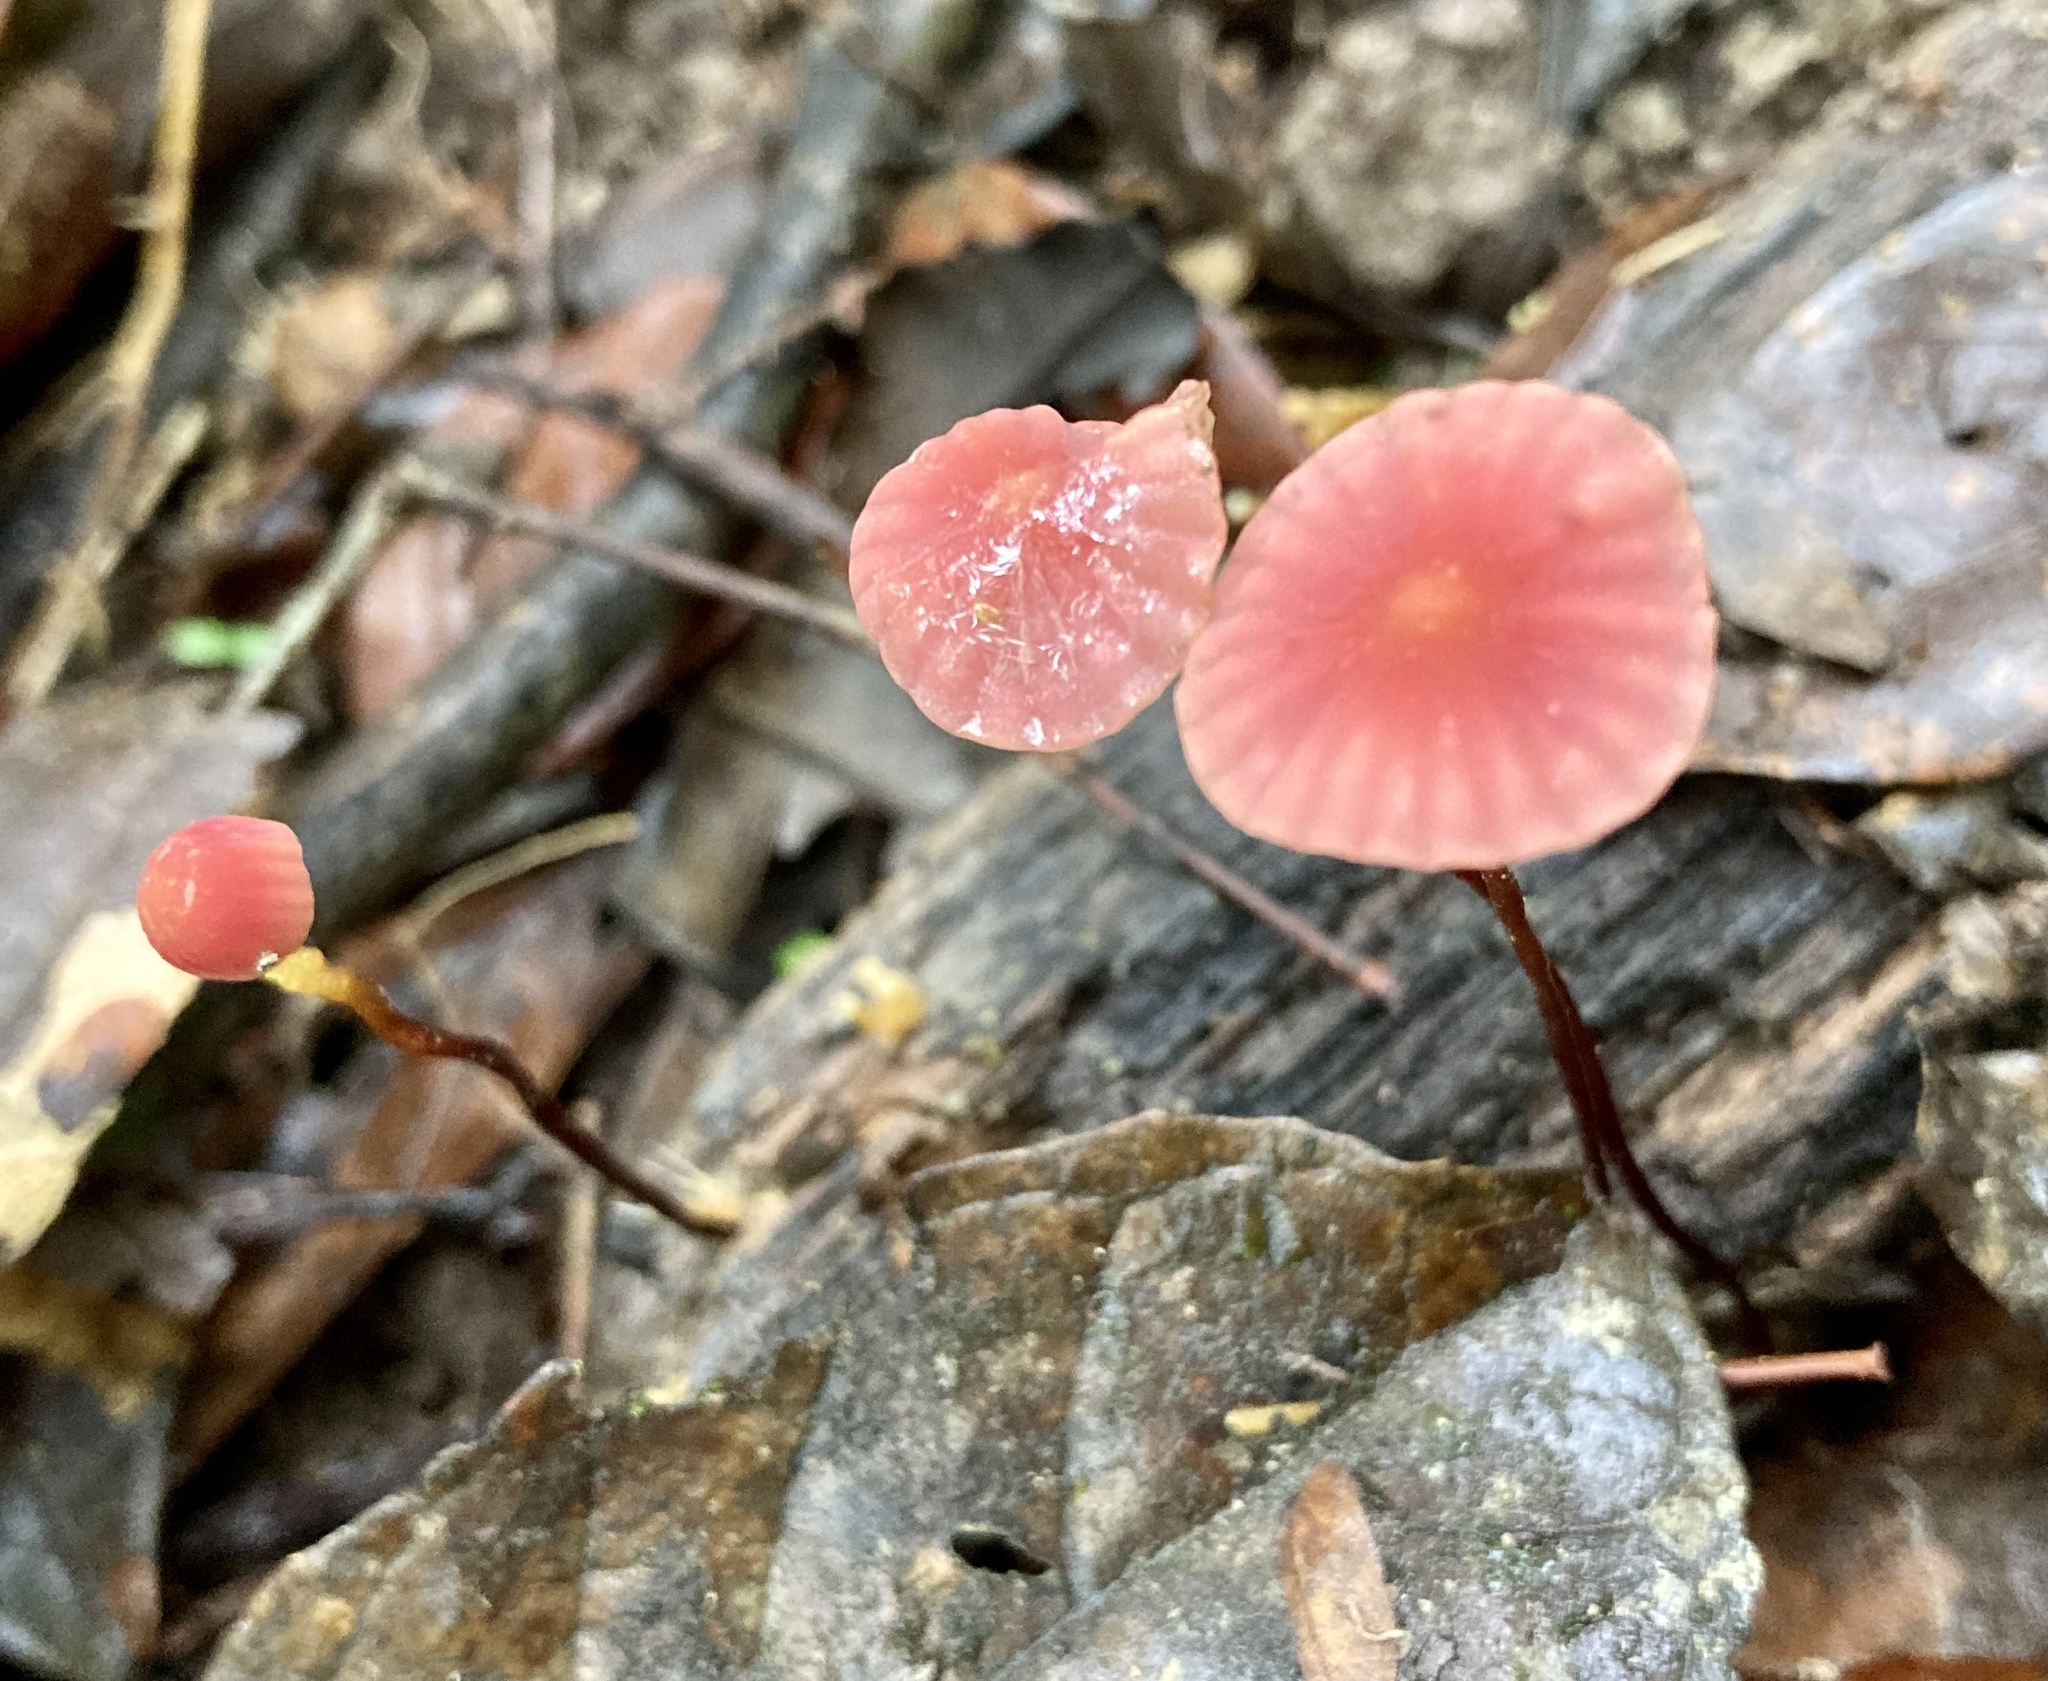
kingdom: Fungi
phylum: Basidiomycota
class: Agaricomycetes
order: Agaricales
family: Marasmiaceae
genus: Marasmius
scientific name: Marasmius haematocephalus
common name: Purple pinwheel
